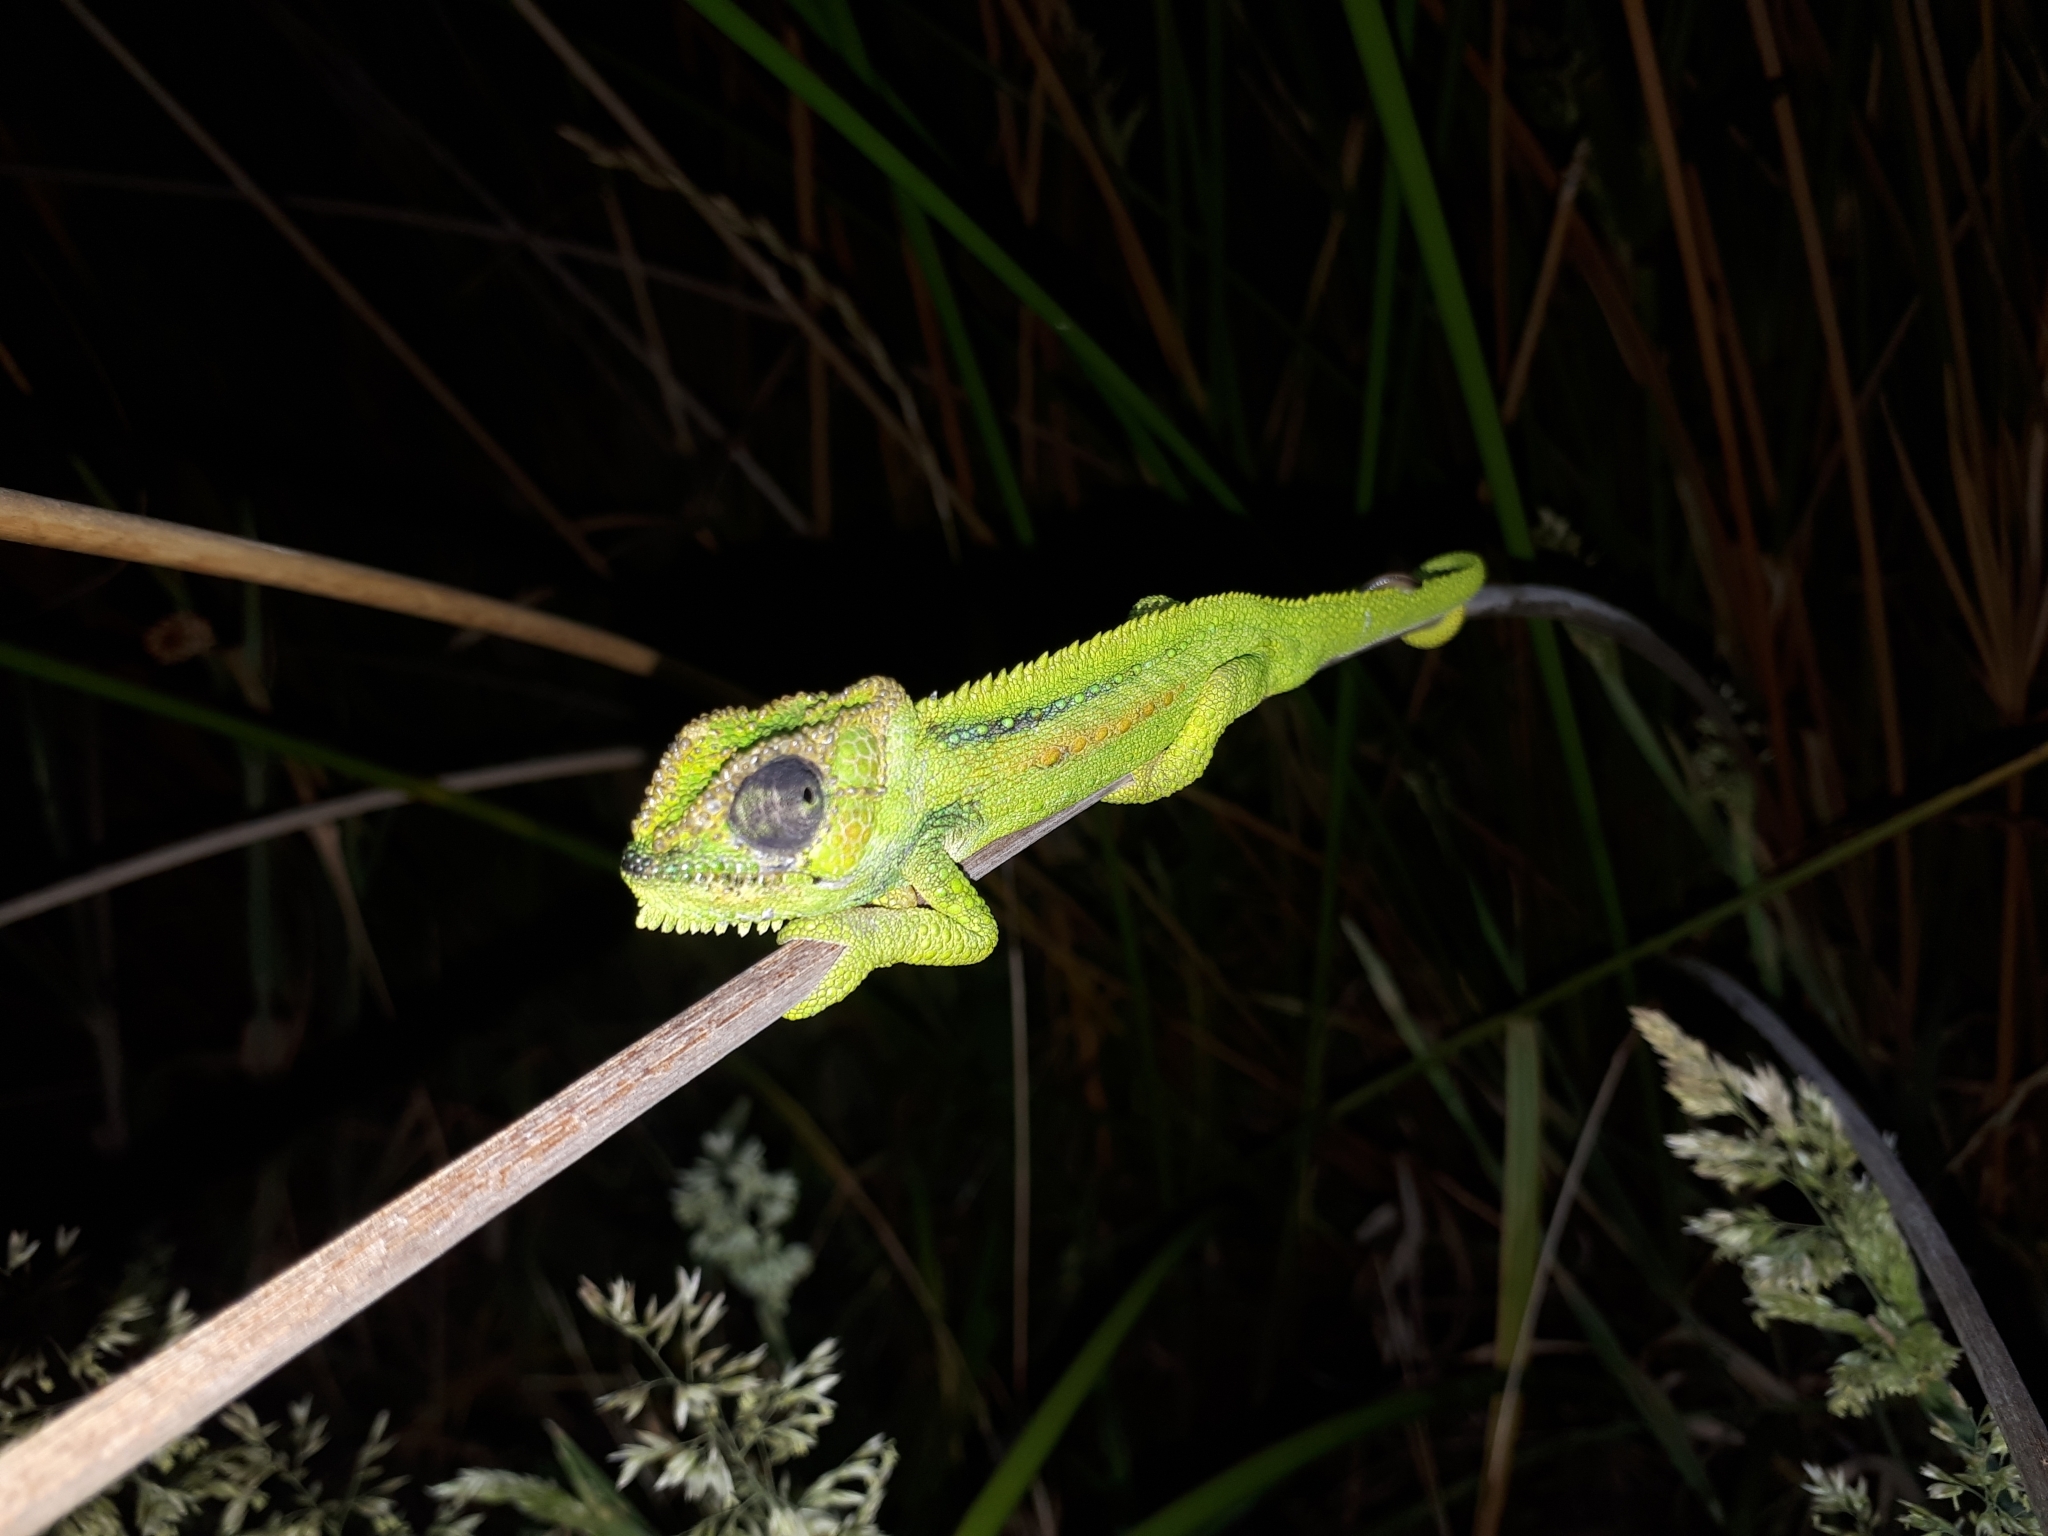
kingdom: Animalia
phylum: Chordata
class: Squamata
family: Chamaeleonidae
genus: Bradypodion
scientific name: Bradypodion pumilum
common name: Cape dwarf chameleon
